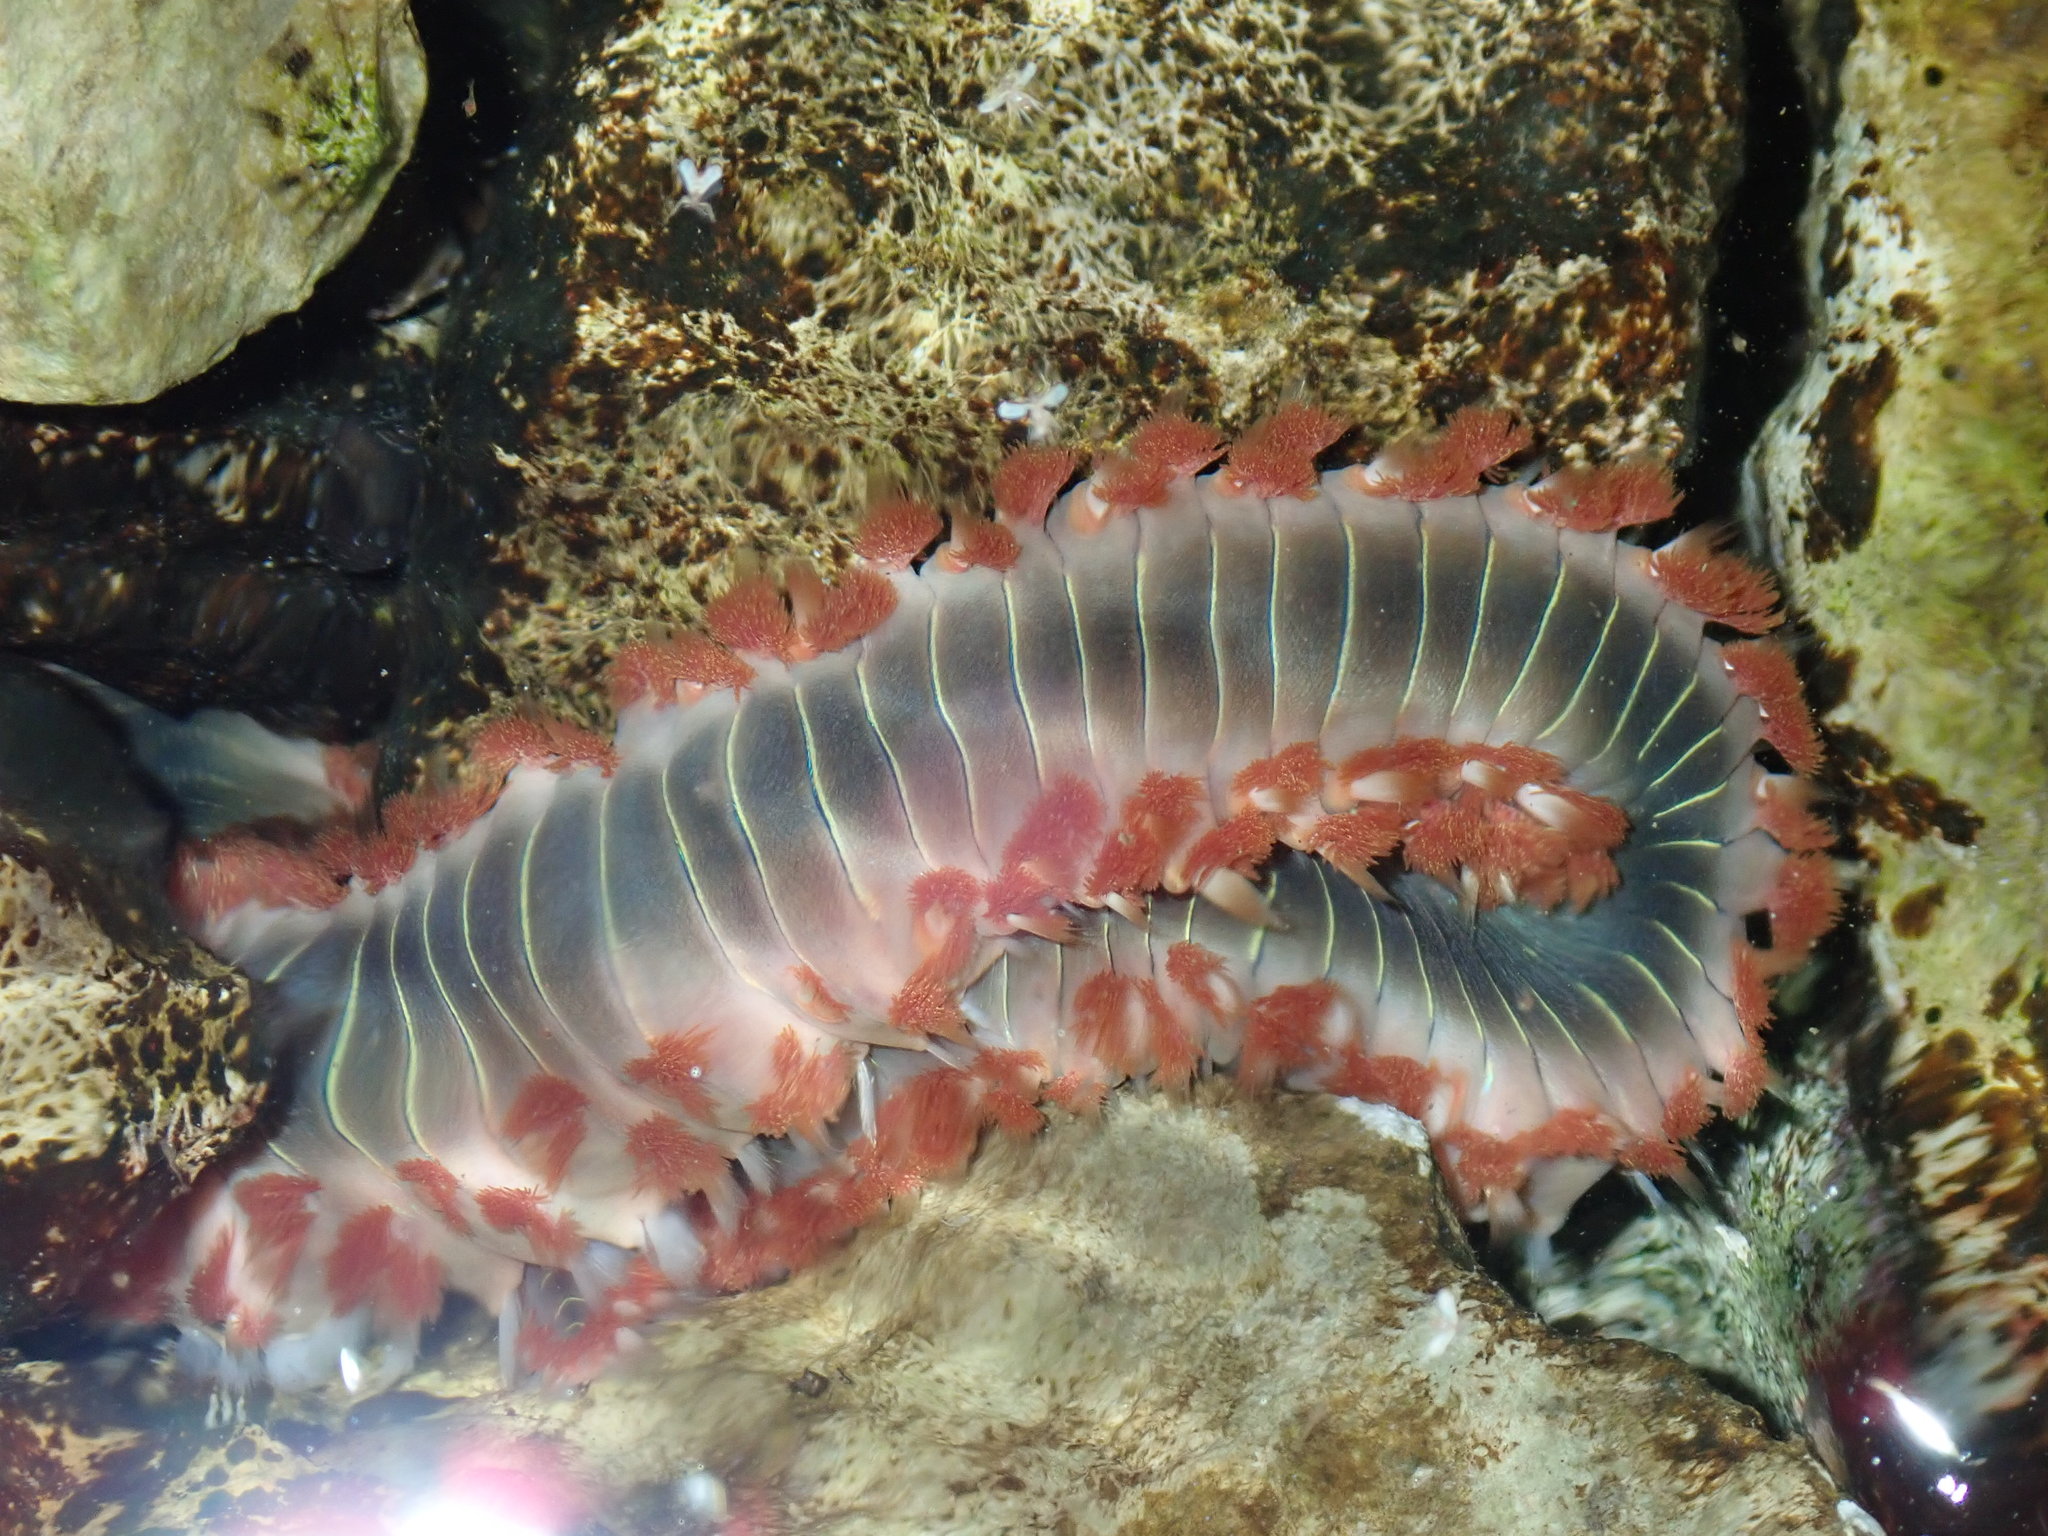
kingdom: Animalia
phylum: Annelida
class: Polychaeta
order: Amphinomida
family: Amphinomidae
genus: Hermodice
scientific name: Hermodice carunculata
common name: Bearded fireworm
